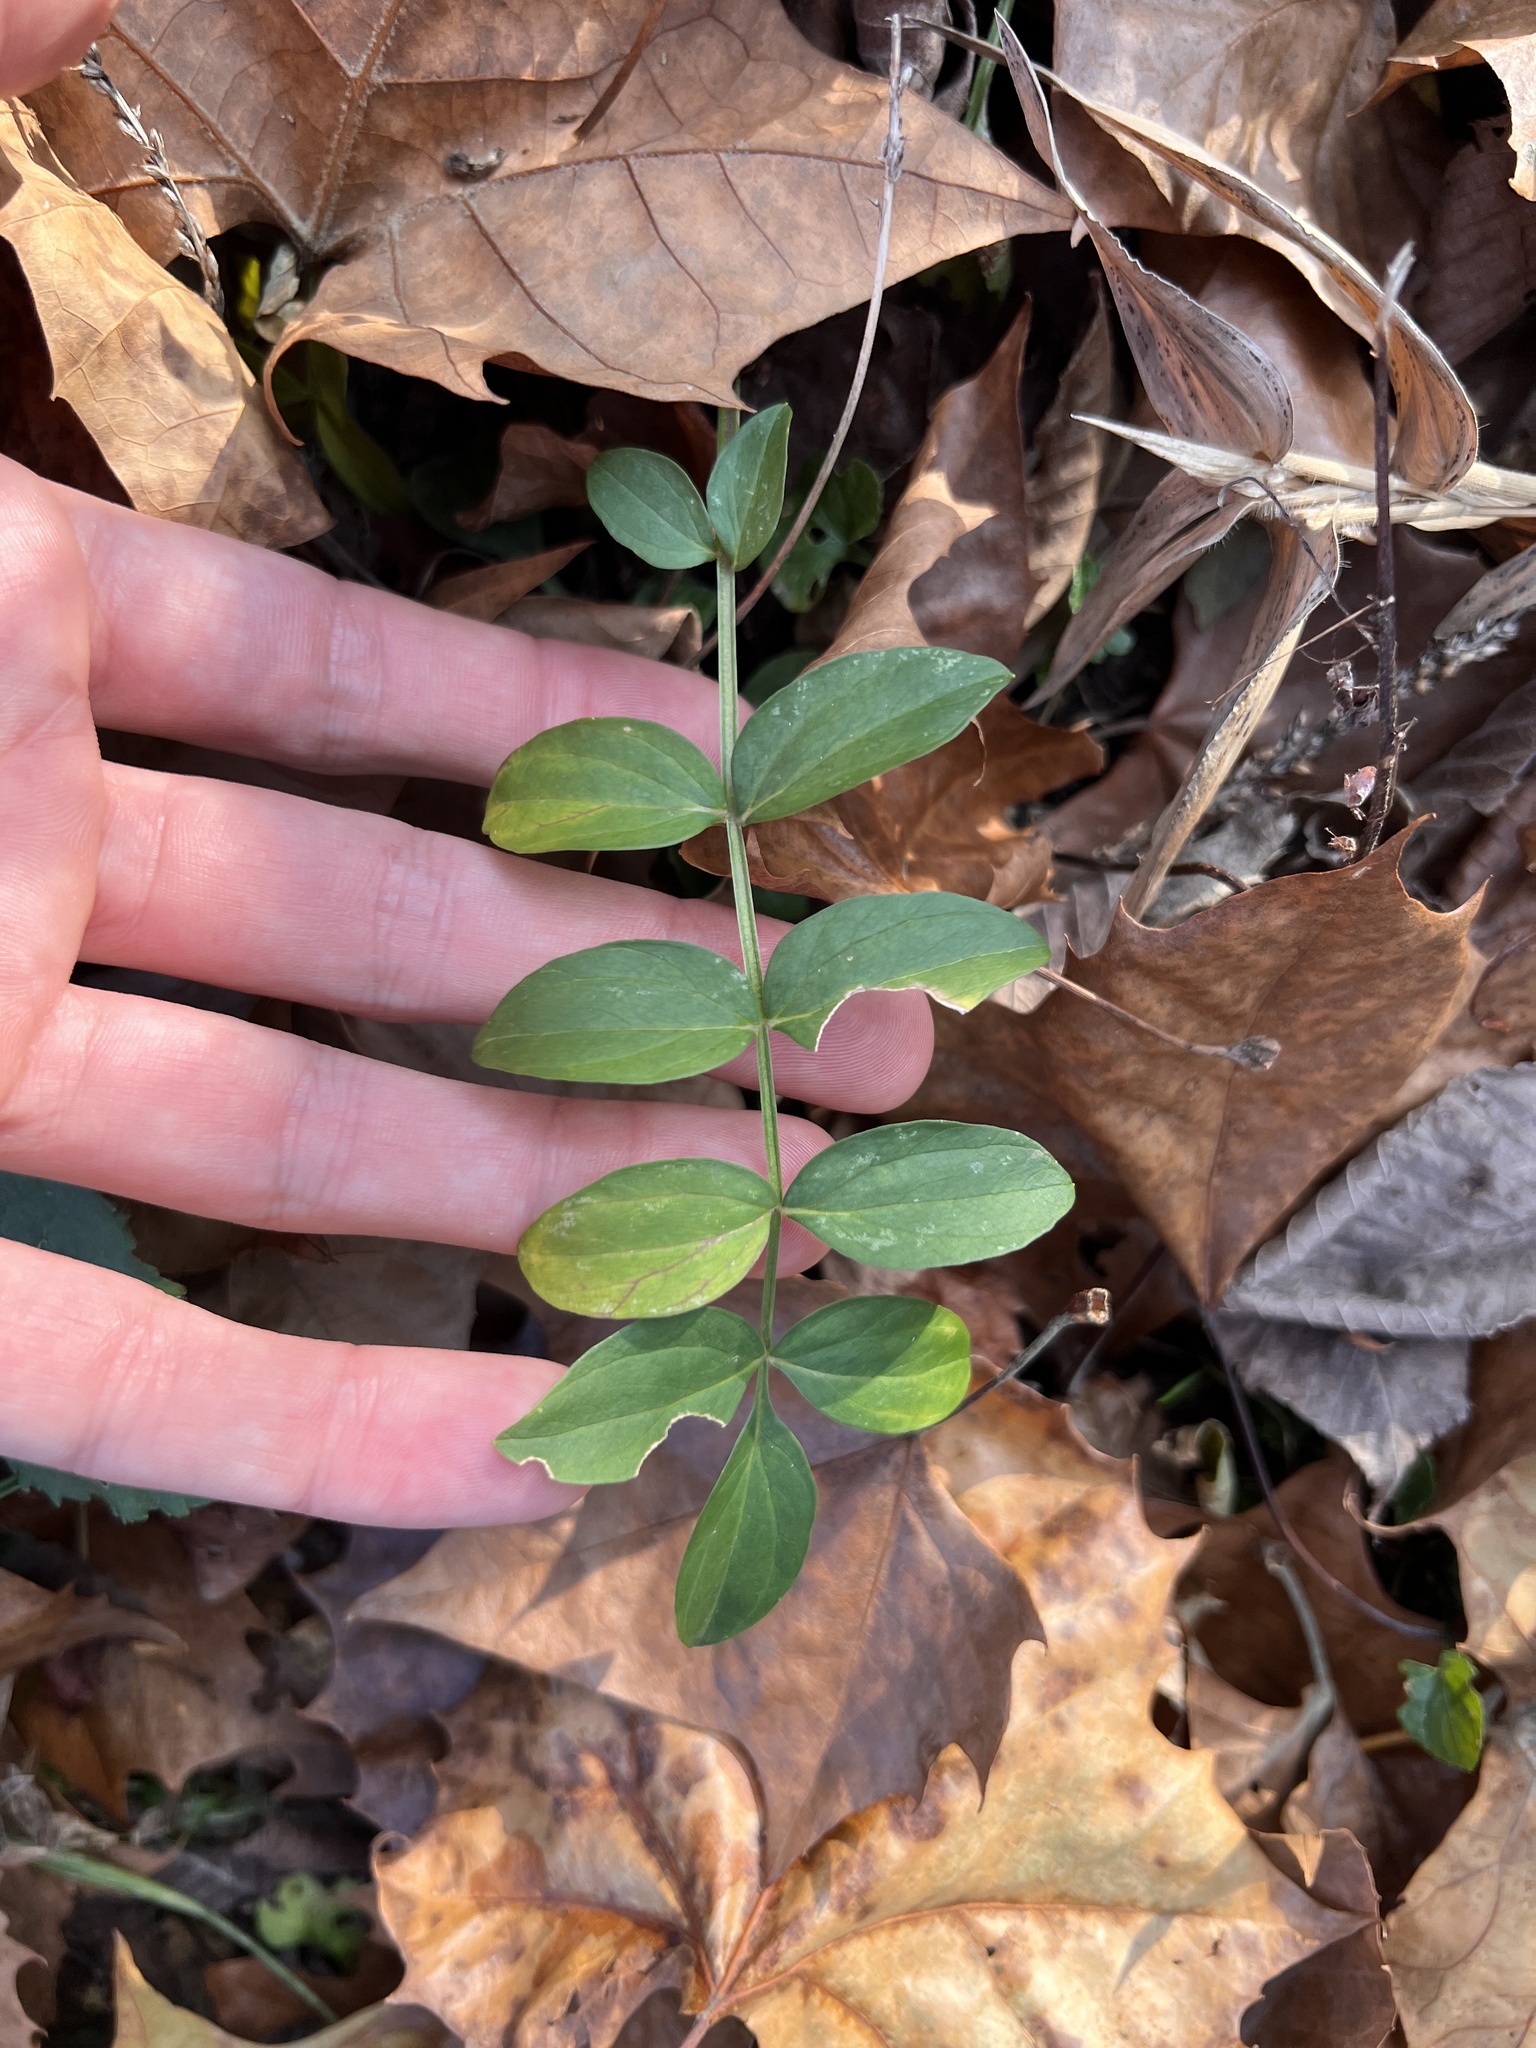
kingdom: Plantae
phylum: Tracheophyta
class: Magnoliopsida
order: Ericales
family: Polemoniaceae
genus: Polemonium
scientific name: Polemonium reptans
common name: Creeping jacob's-ladder
